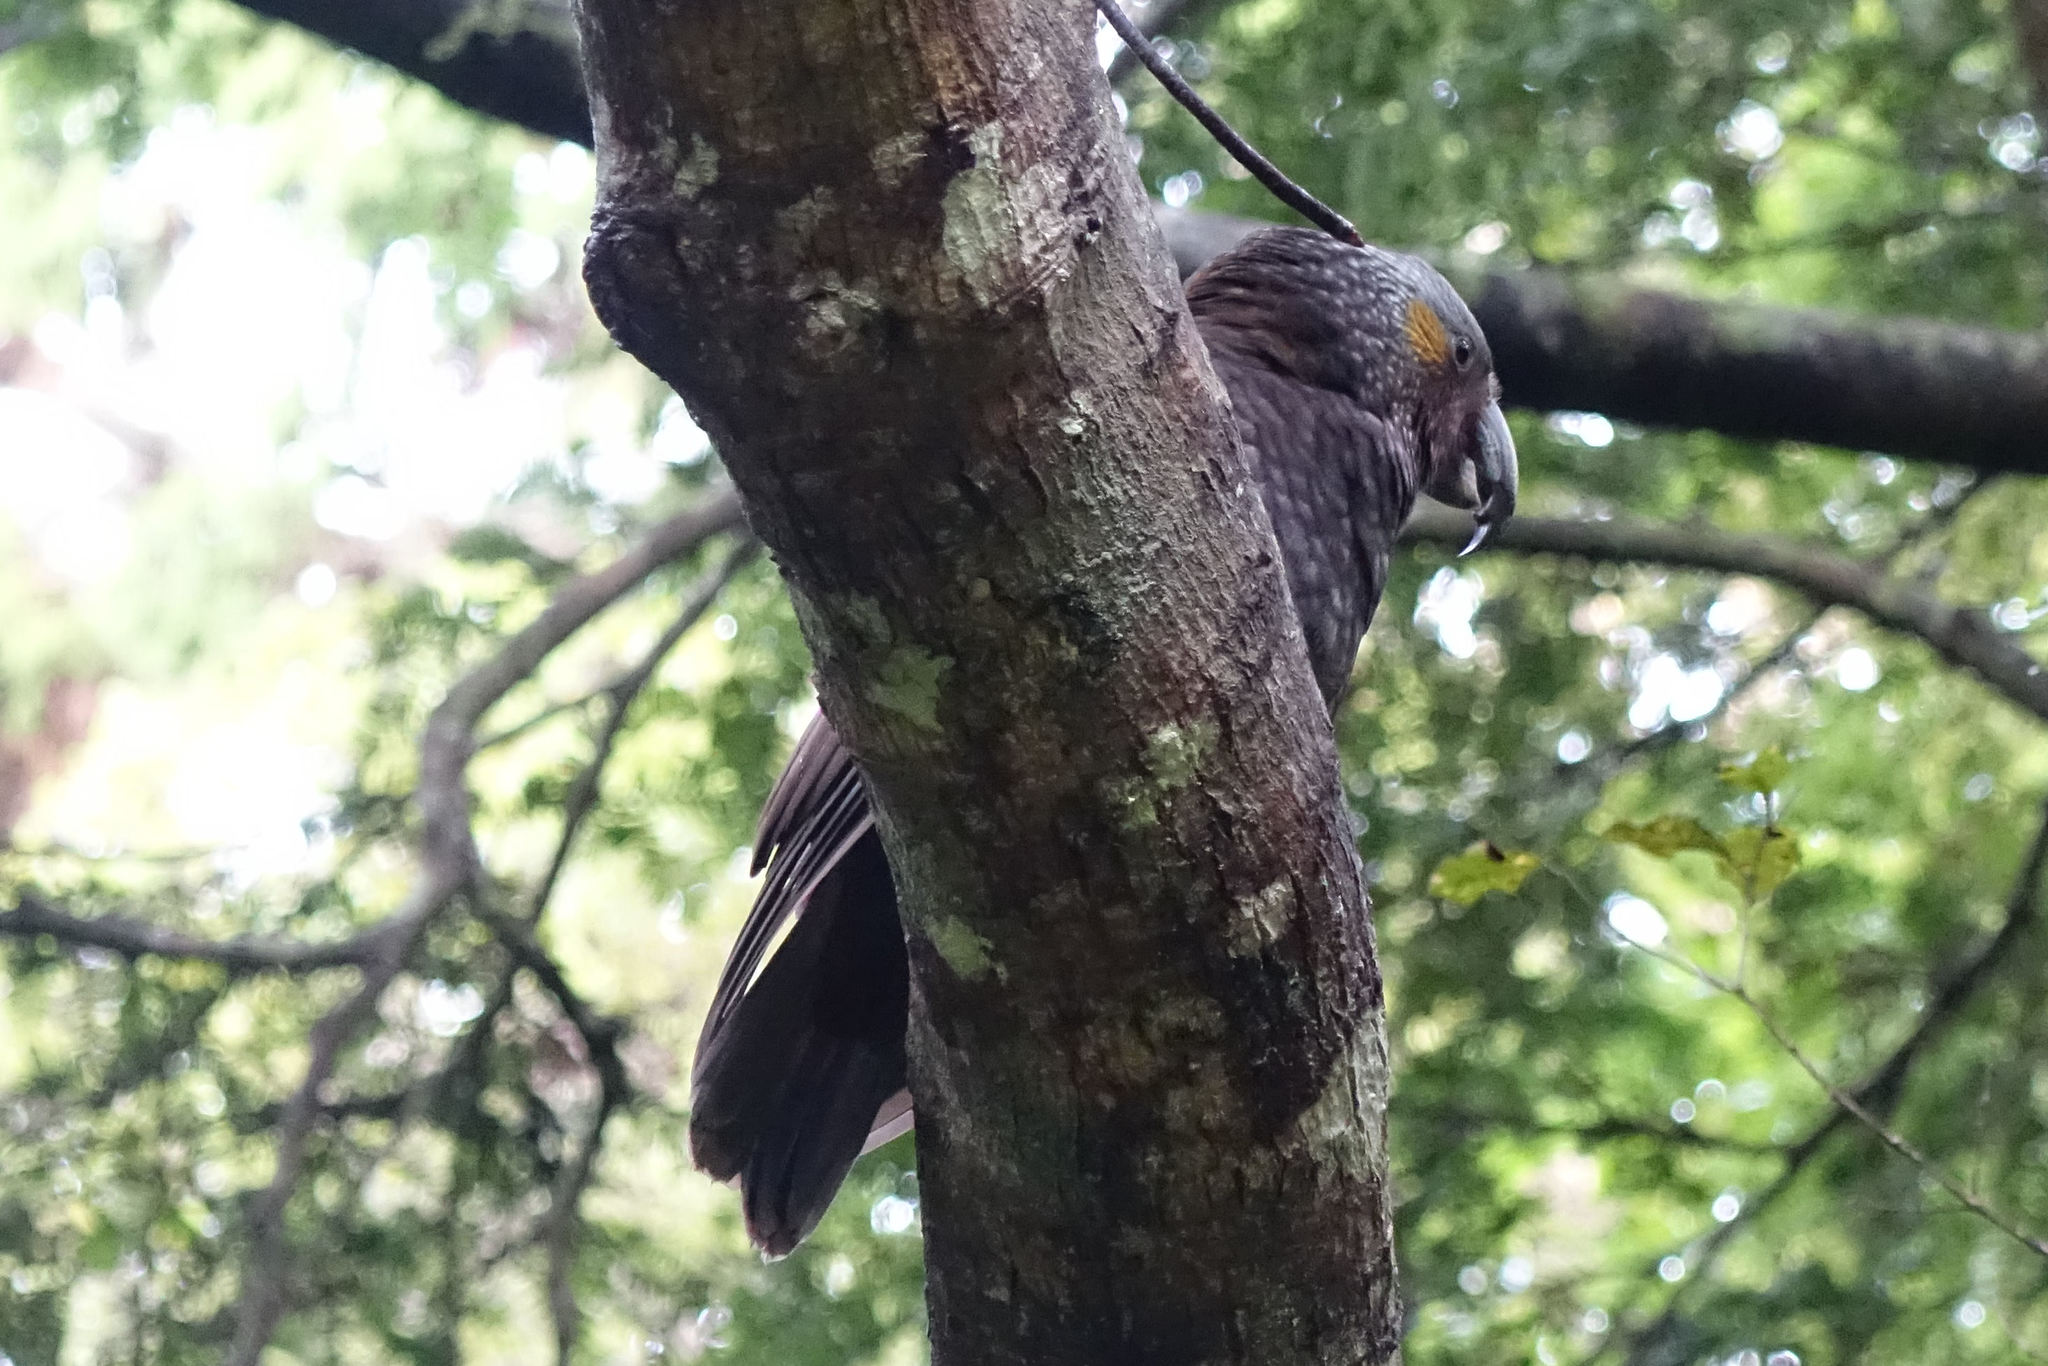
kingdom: Animalia
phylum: Chordata
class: Aves
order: Psittaciformes
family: Psittacidae
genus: Nestor
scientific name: Nestor meridionalis
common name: New zealand kaka
